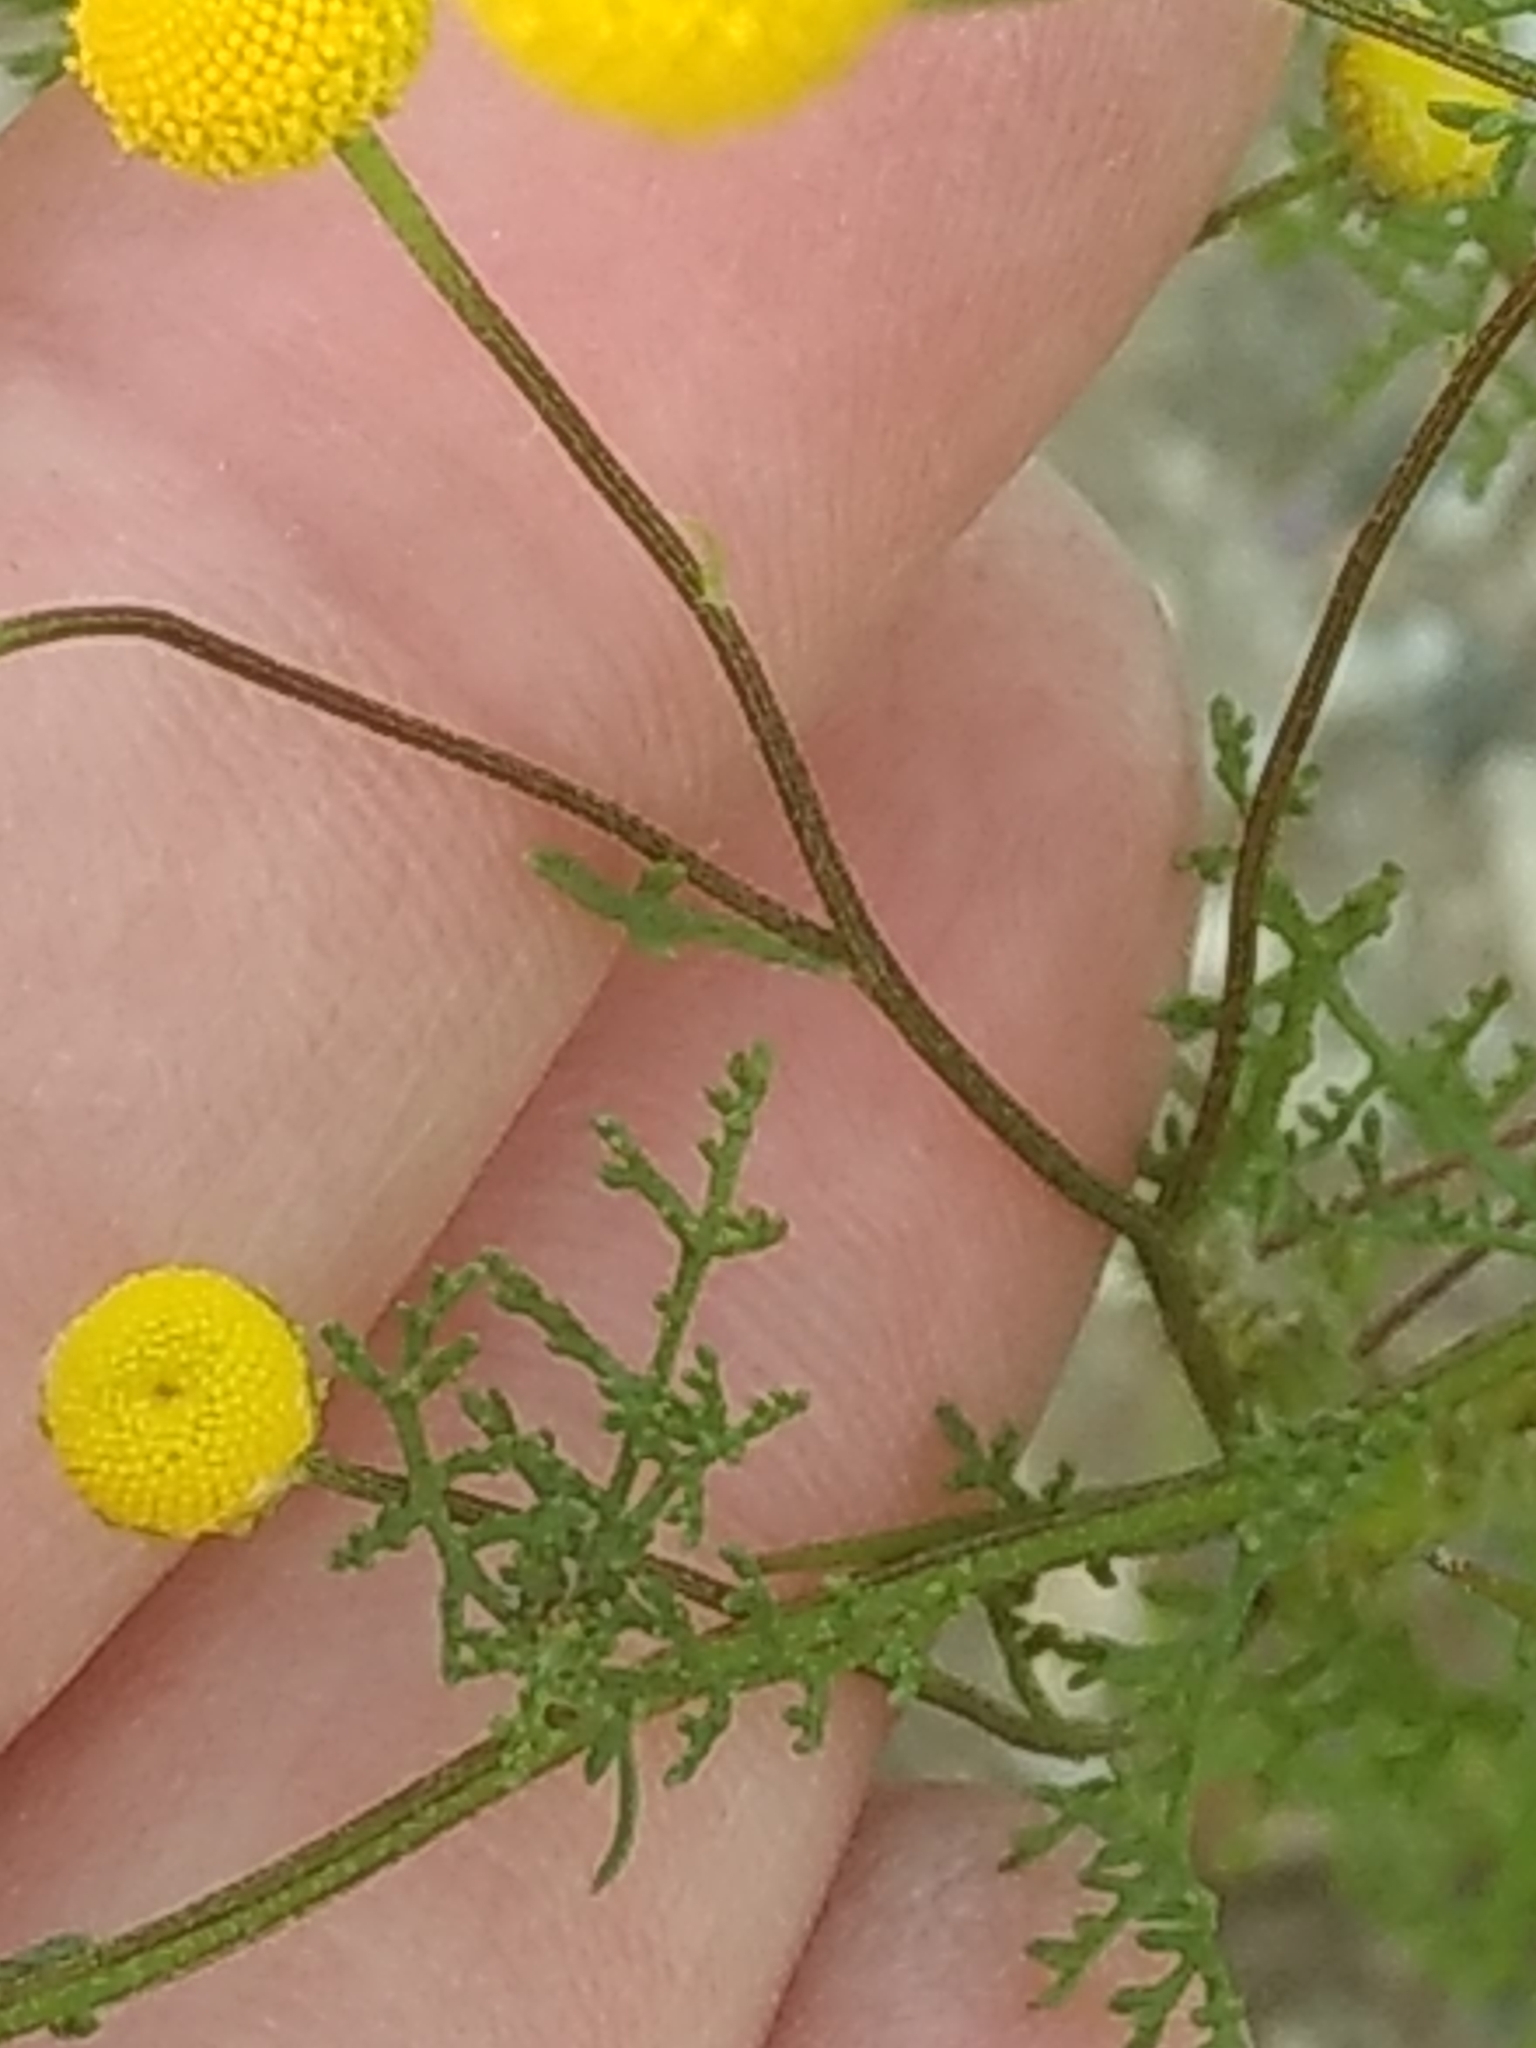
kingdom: Plantae
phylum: Tracheophyta
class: Magnoliopsida
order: Asterales
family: Asteraceae
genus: Oncosiphon
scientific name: Oncosiphon pilulifer
